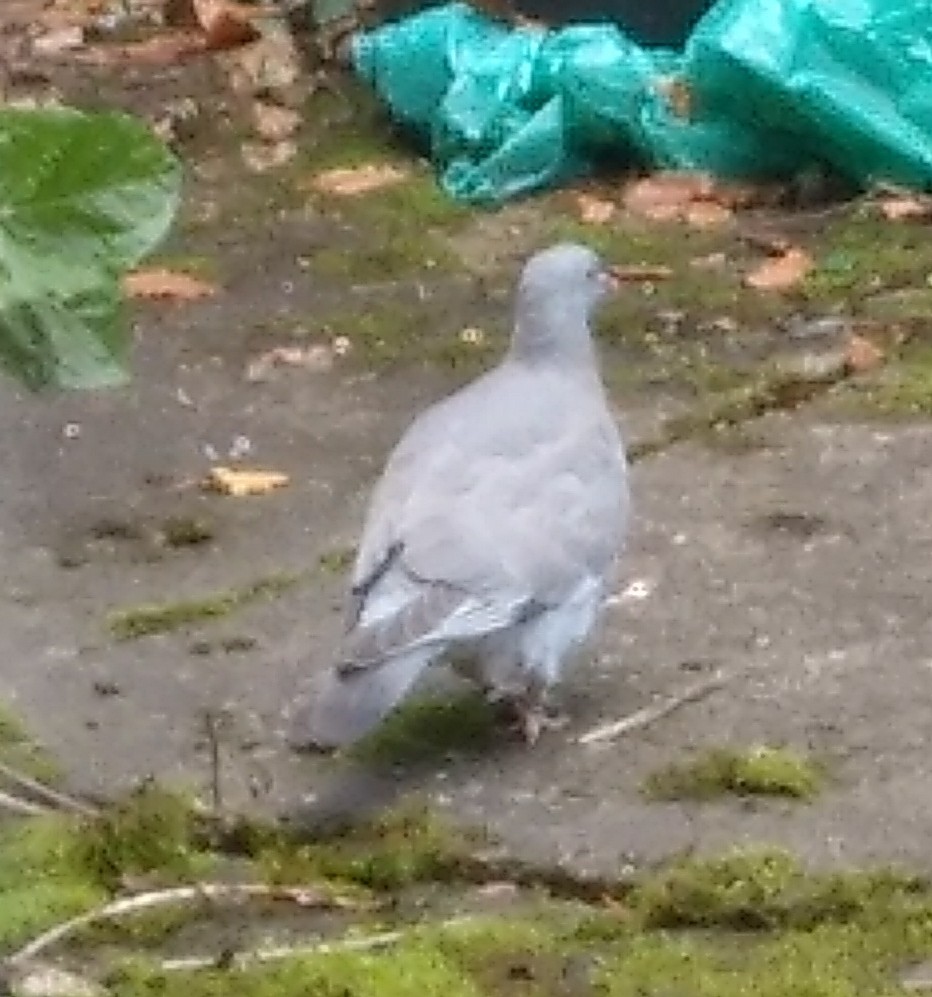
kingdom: Animalia
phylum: Chordata
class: Aves
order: Columbiformes
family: Columbidae
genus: Columba
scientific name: Columba palumbus
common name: Common wood pigeon
